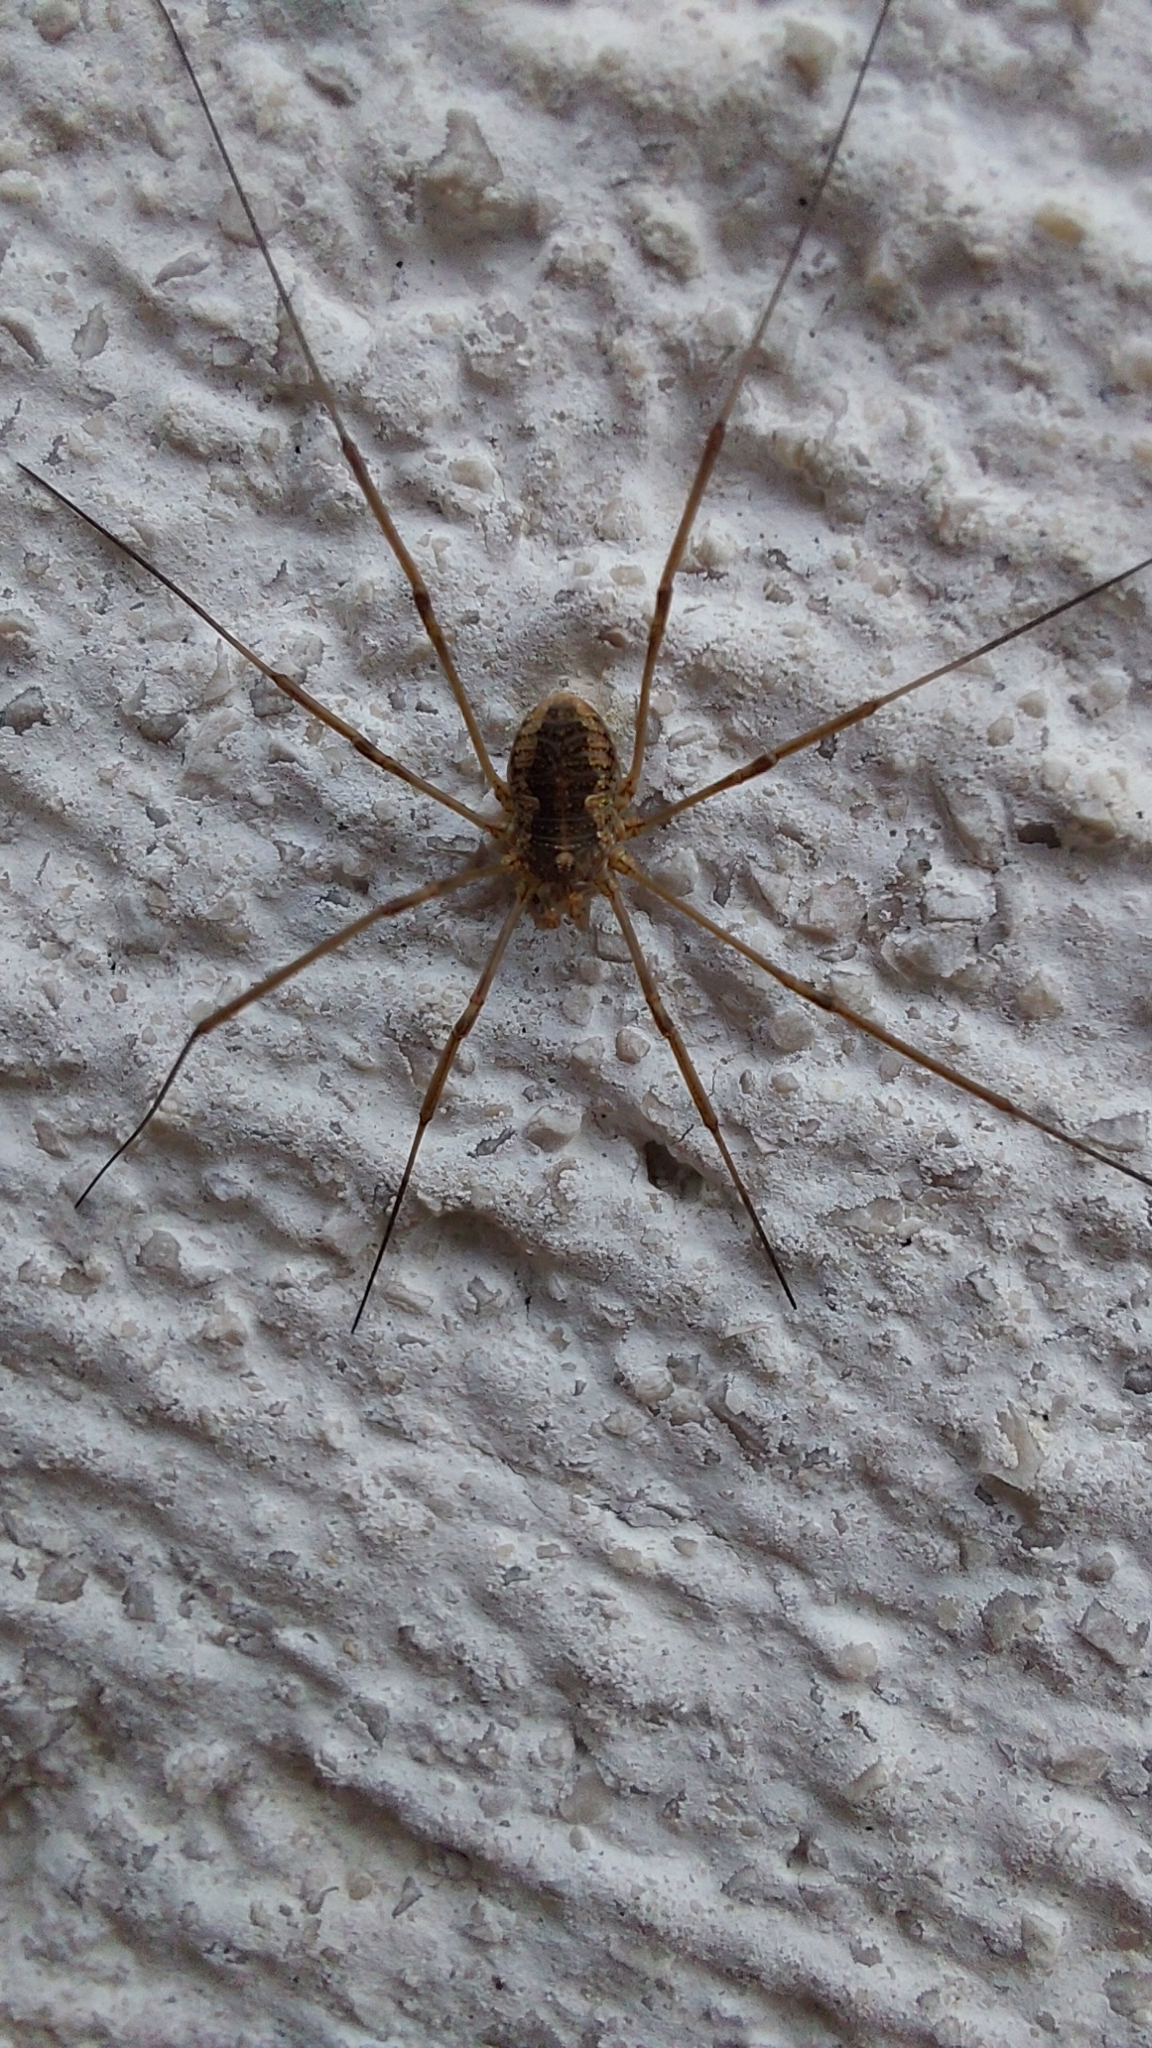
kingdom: Animalia
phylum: Arthropoda
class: Arachnida
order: Opiliones
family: Phalangiidae
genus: Phalangium
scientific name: Phalangium opilio
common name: Daddy longleg
